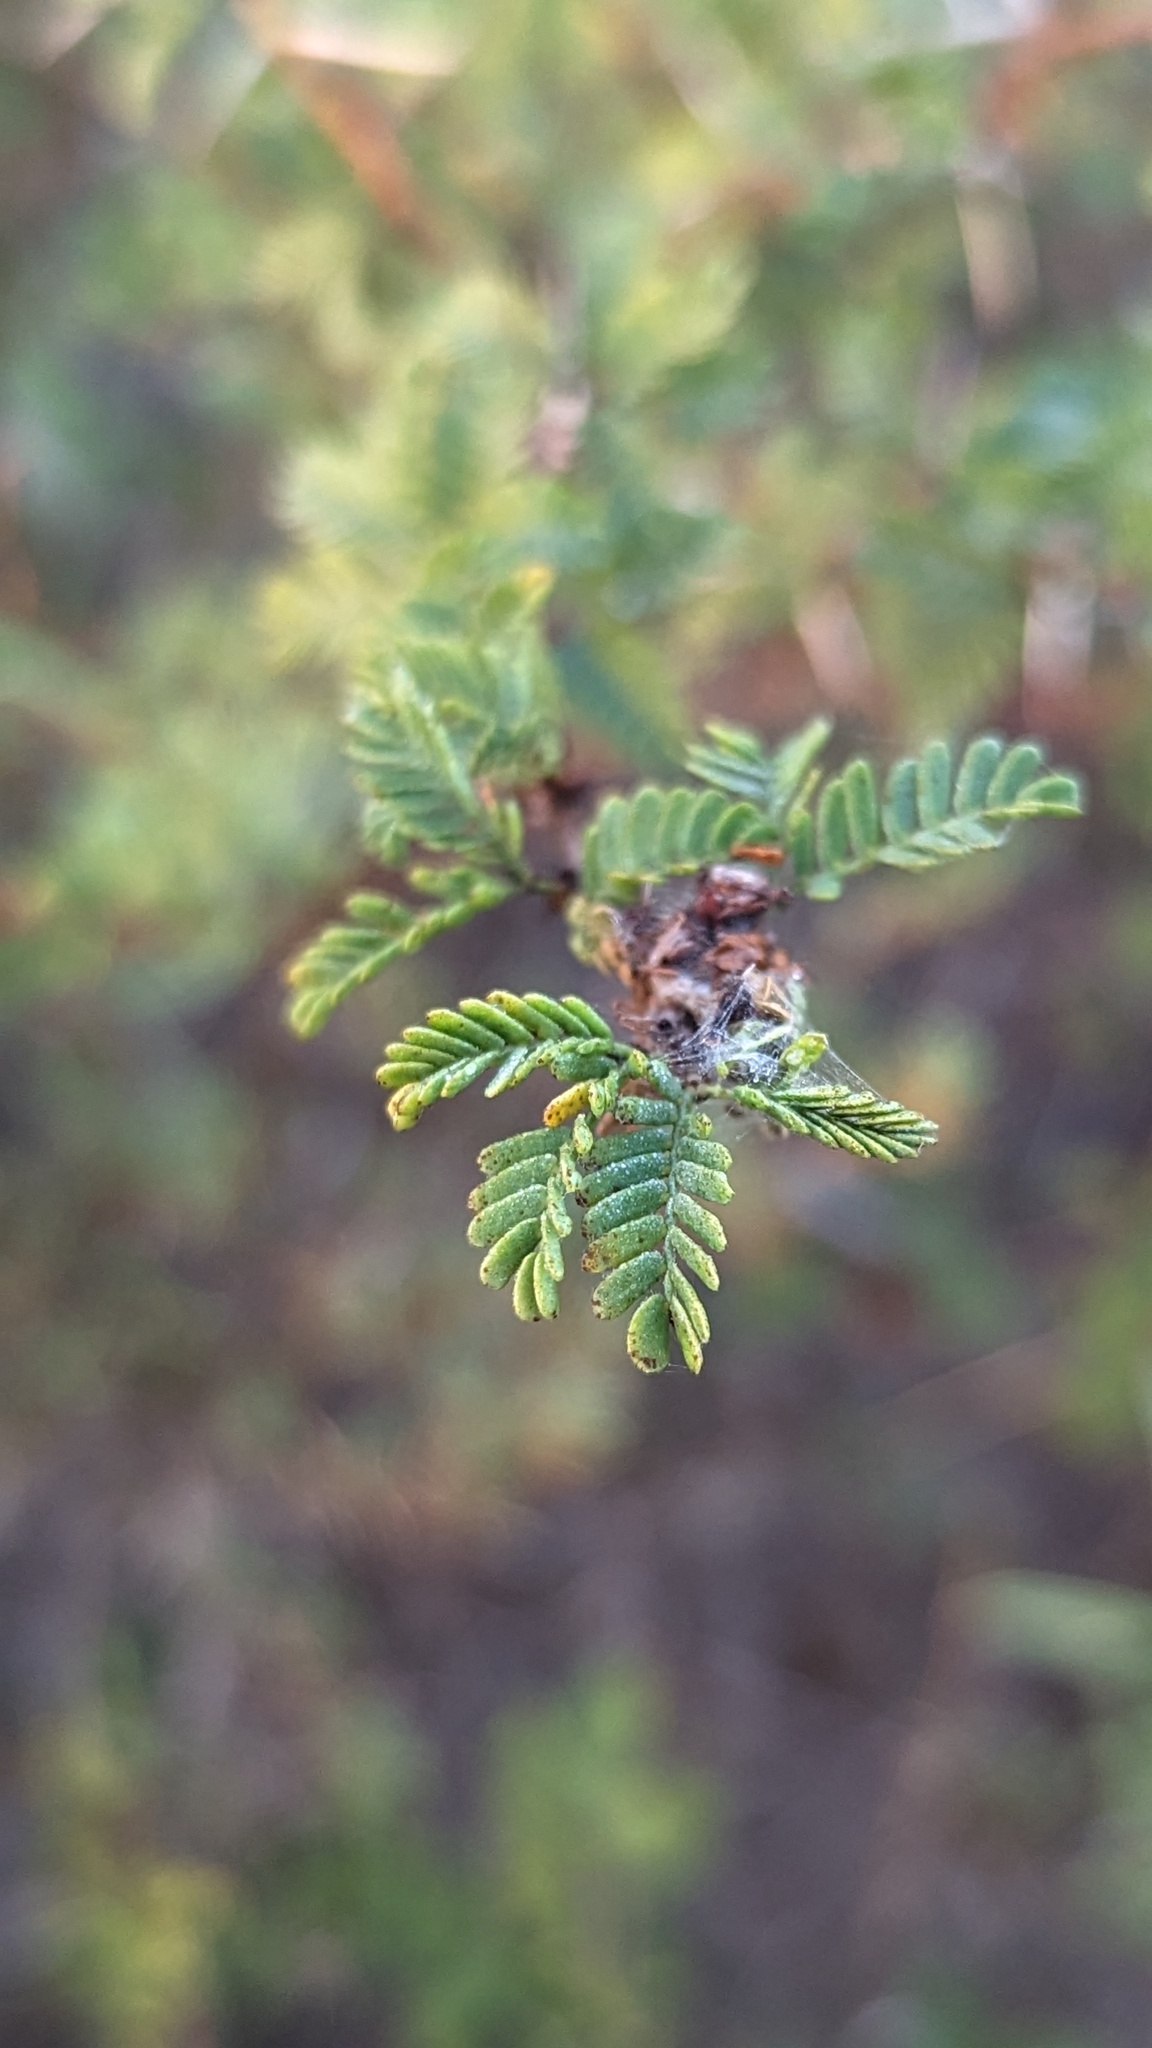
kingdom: Plantae
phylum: Tracheophyta
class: Magnoliopsida
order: Fabales
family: Fabaceae
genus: Prosopis
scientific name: Prosopis cinerascens
